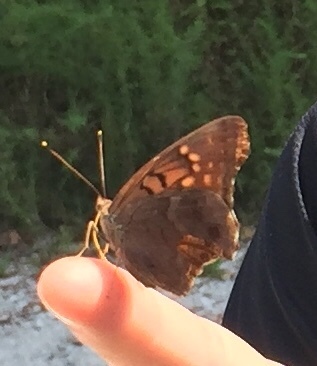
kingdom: Animalia
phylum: Arthropoda
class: Insecta
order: Lepidoptera
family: Nymphalidae
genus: Asterocampa
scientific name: Asterocampa clyton
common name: Tawny emperor
